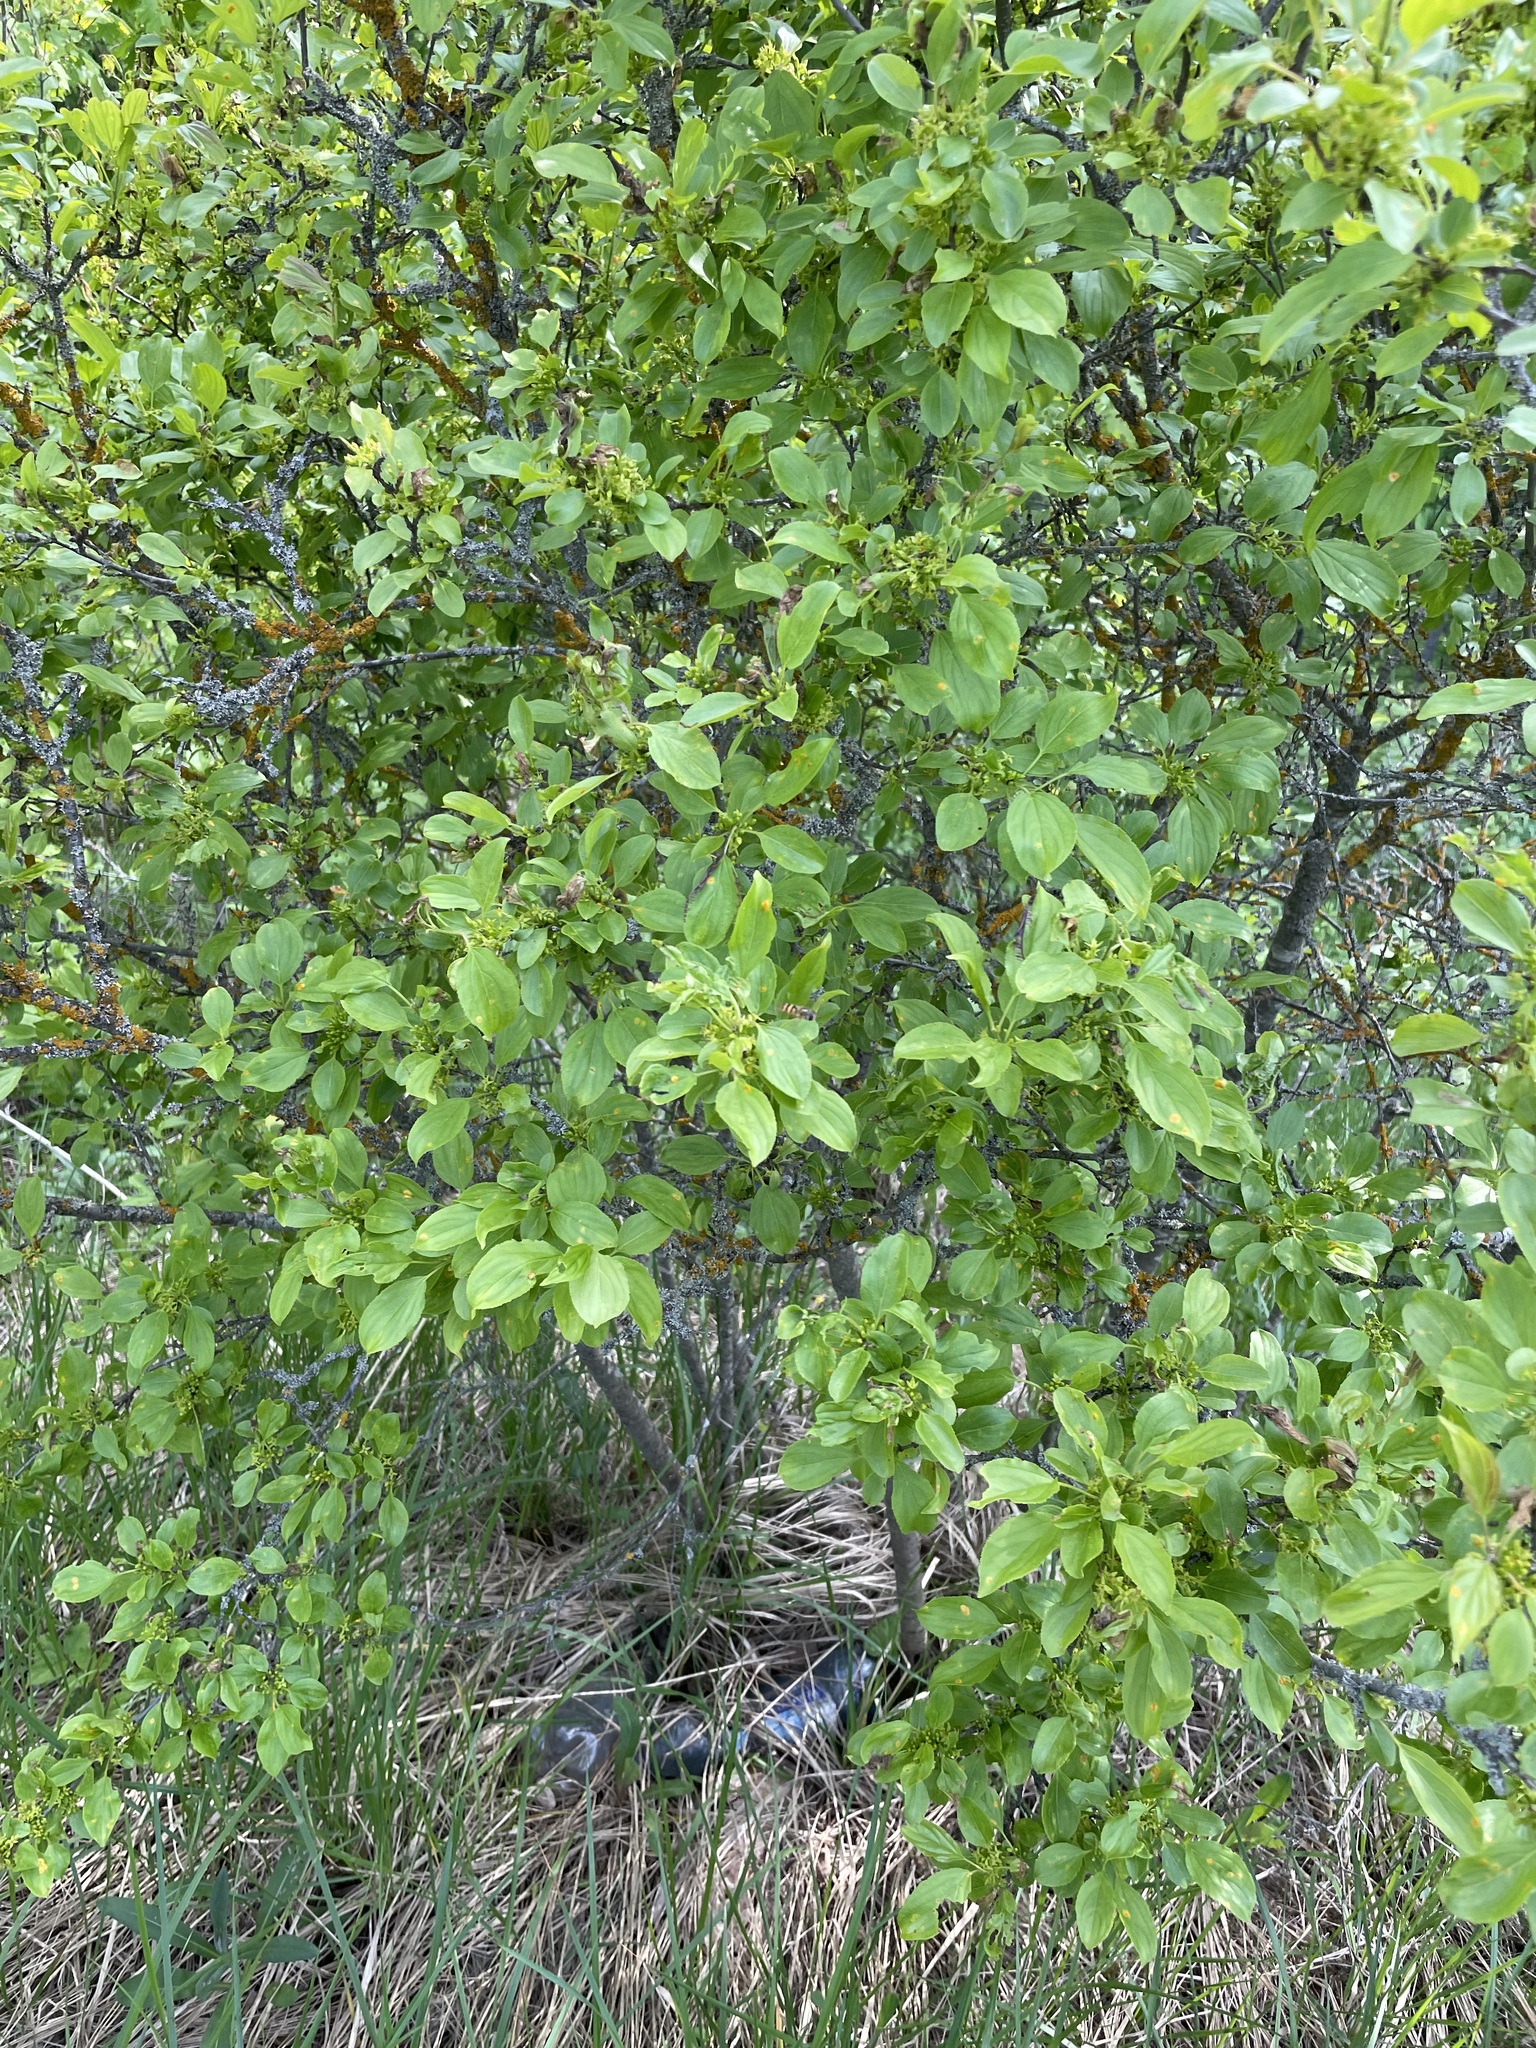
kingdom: Plantae
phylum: Tracheophyta
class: Magnoliopsida
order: Rosales
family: Rhamnaceae
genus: Rhamnus
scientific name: Rhamnus cathartica
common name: Common buckthorn
